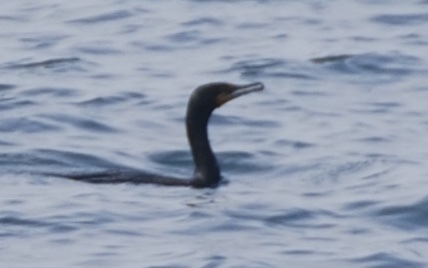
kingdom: Animalia
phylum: Chordata
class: Aves
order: Suliformes
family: Phalacrocoracidae
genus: Phalacrocorax
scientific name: Phalacrocorax auritus
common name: Double-crested cormorant
